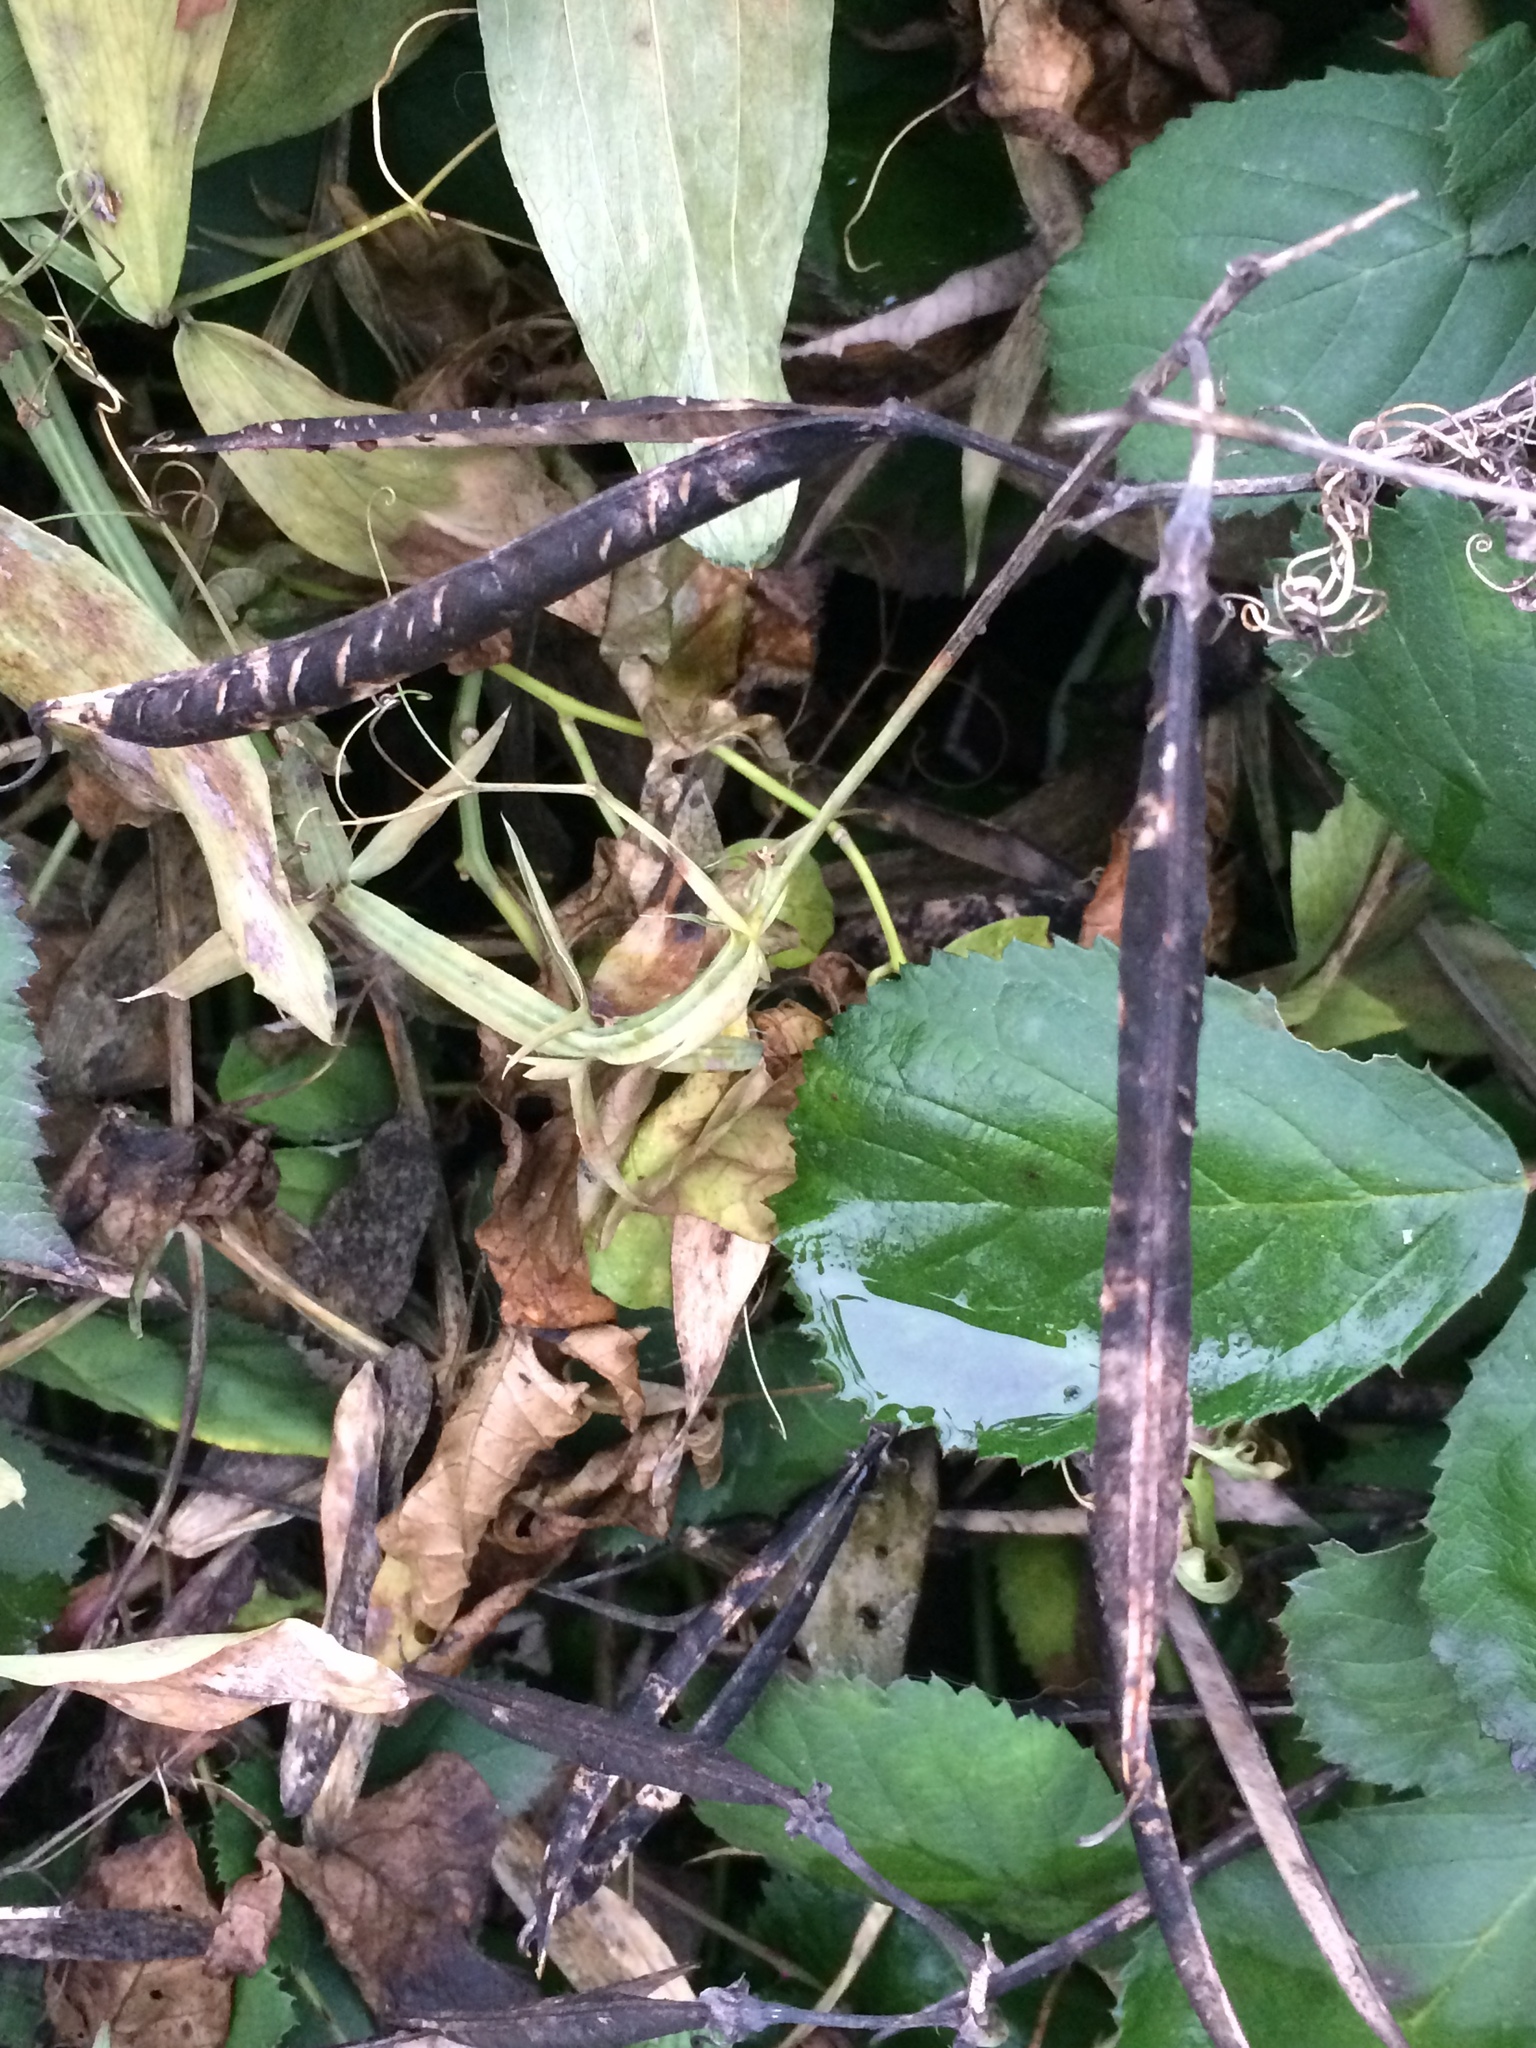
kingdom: Plantae
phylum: Tracheophyta
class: Magnoliopsida
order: Fabales
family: Fabaceae
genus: Lathyrus
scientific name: Lathyrus latifolius
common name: Perennial pea
